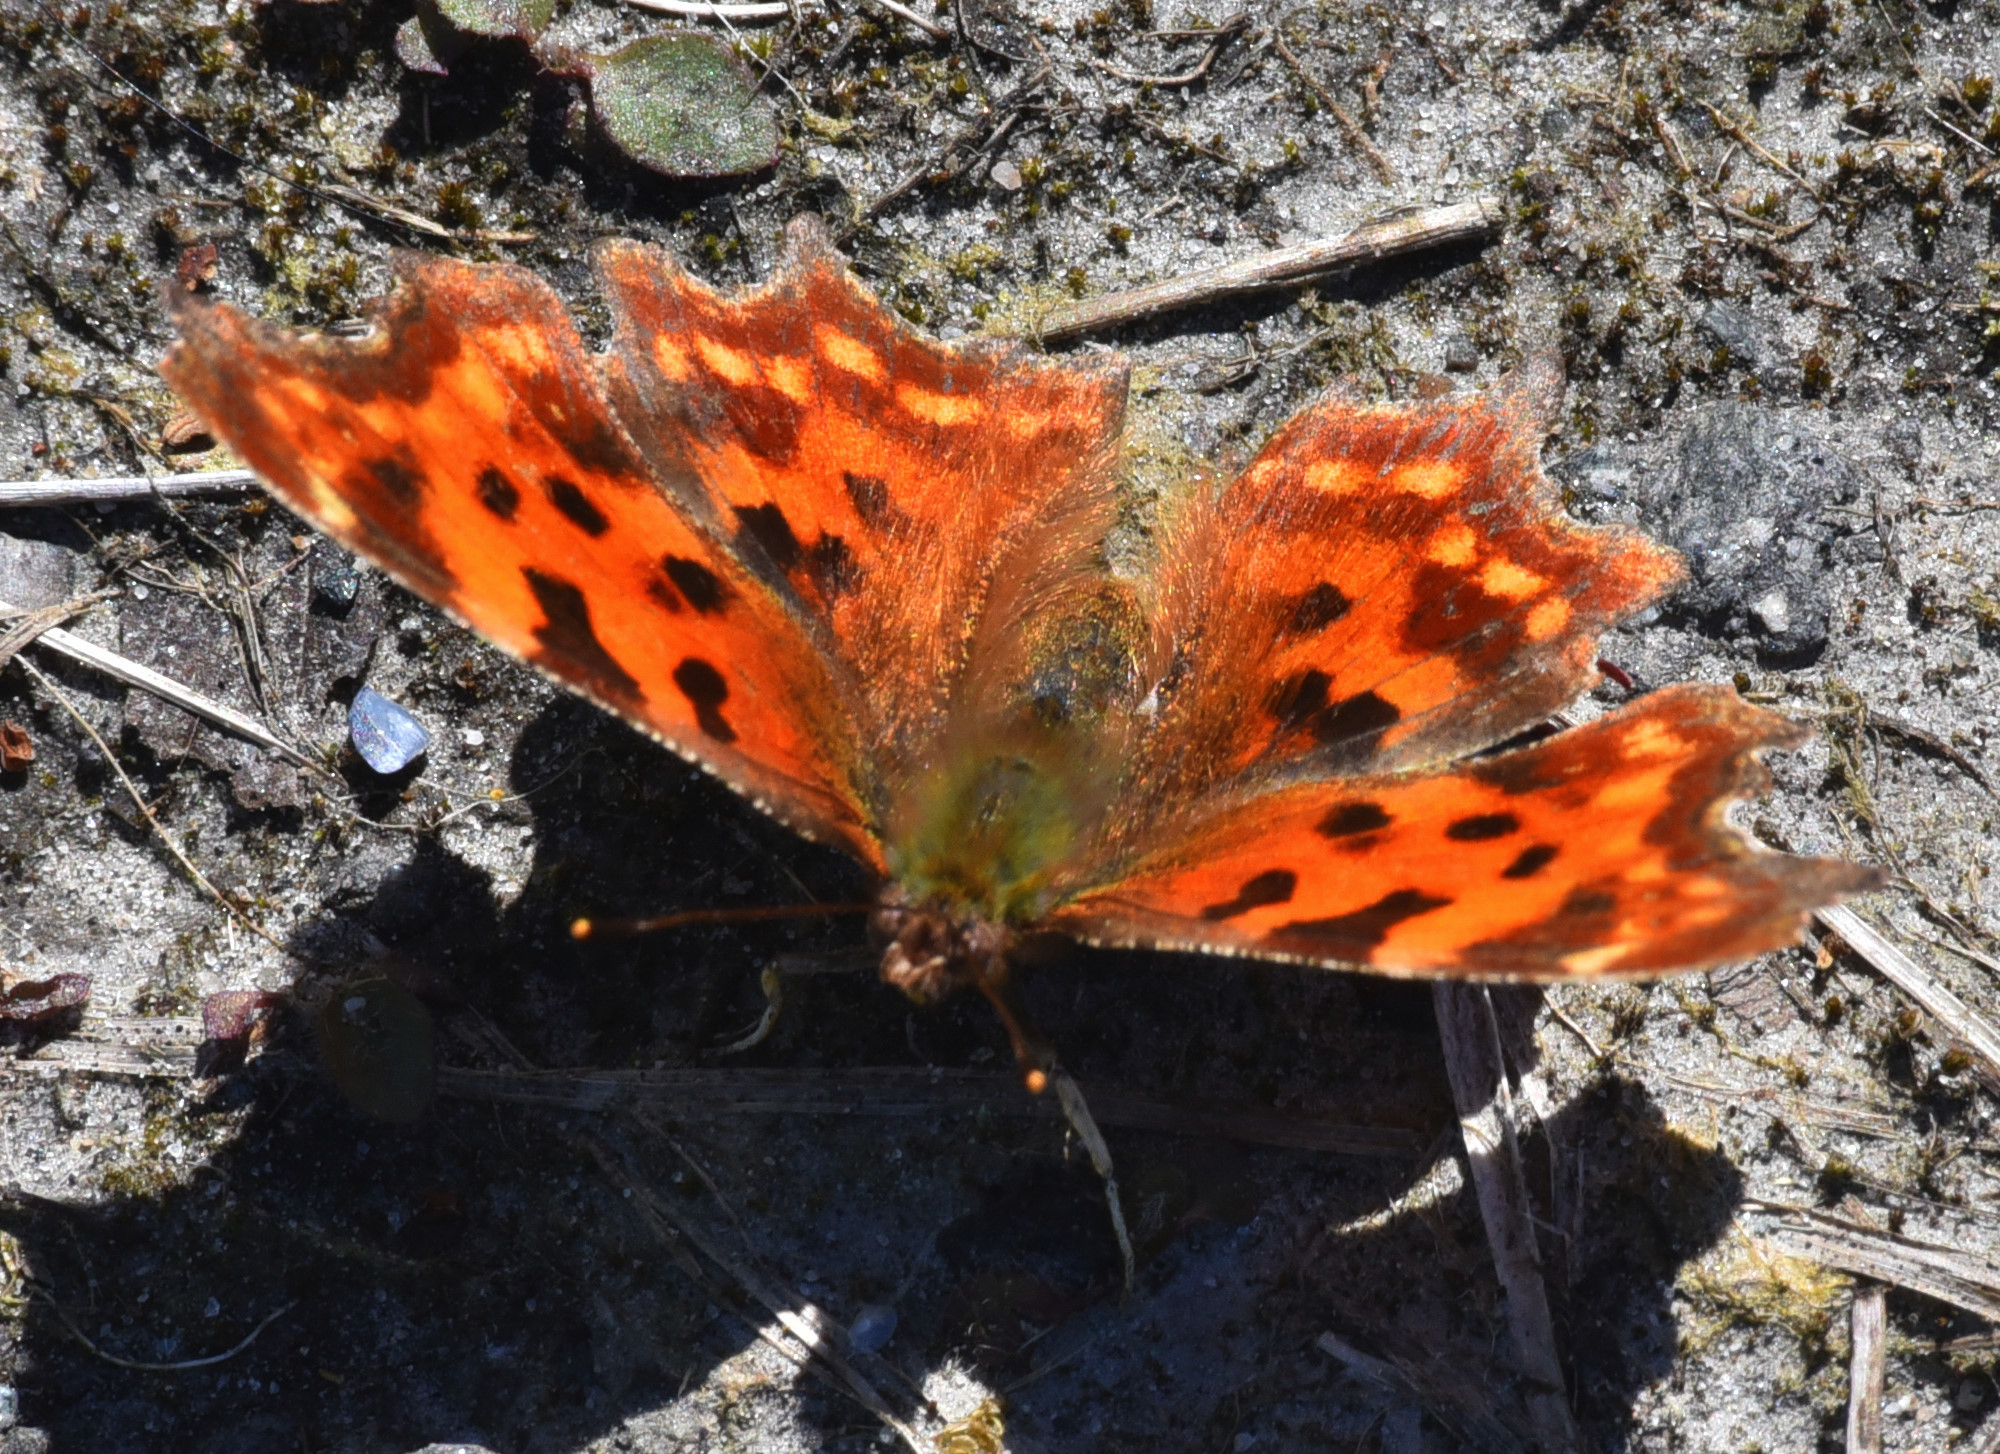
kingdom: Animalia
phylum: Arthropoda
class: Insecta
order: Lepidoptera
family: Nymphalidae
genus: Polygonia
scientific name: Polygonia c-album
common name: Comma
